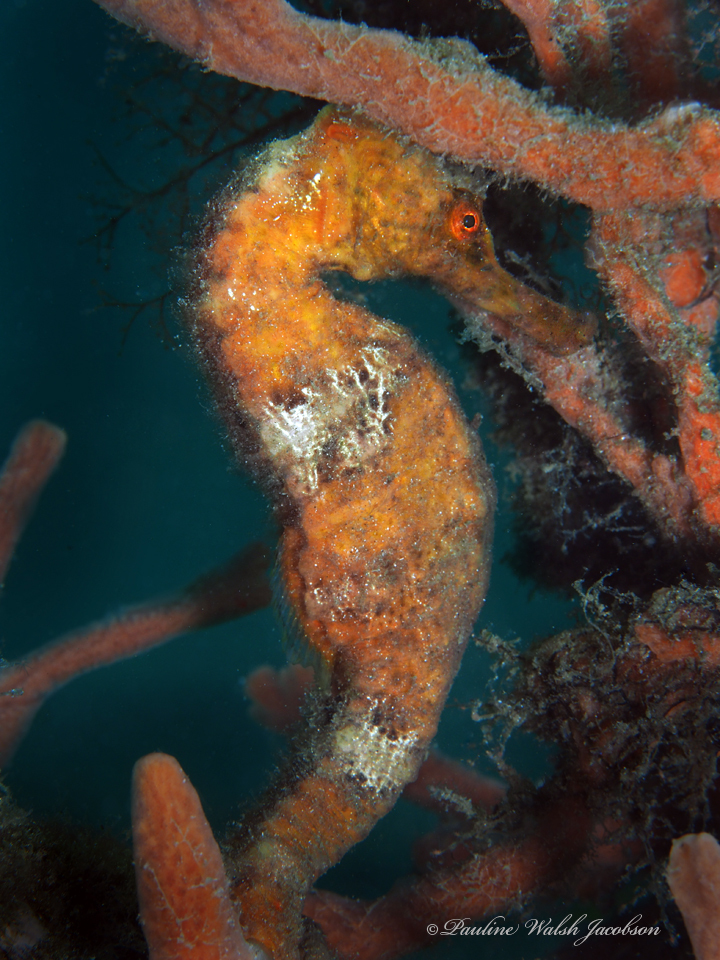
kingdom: Animalia
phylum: Chordata
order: Syngnathiformes
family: Syngnathidae
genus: Hippocampus
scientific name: Hippocampus reidi
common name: Slender seahorse
